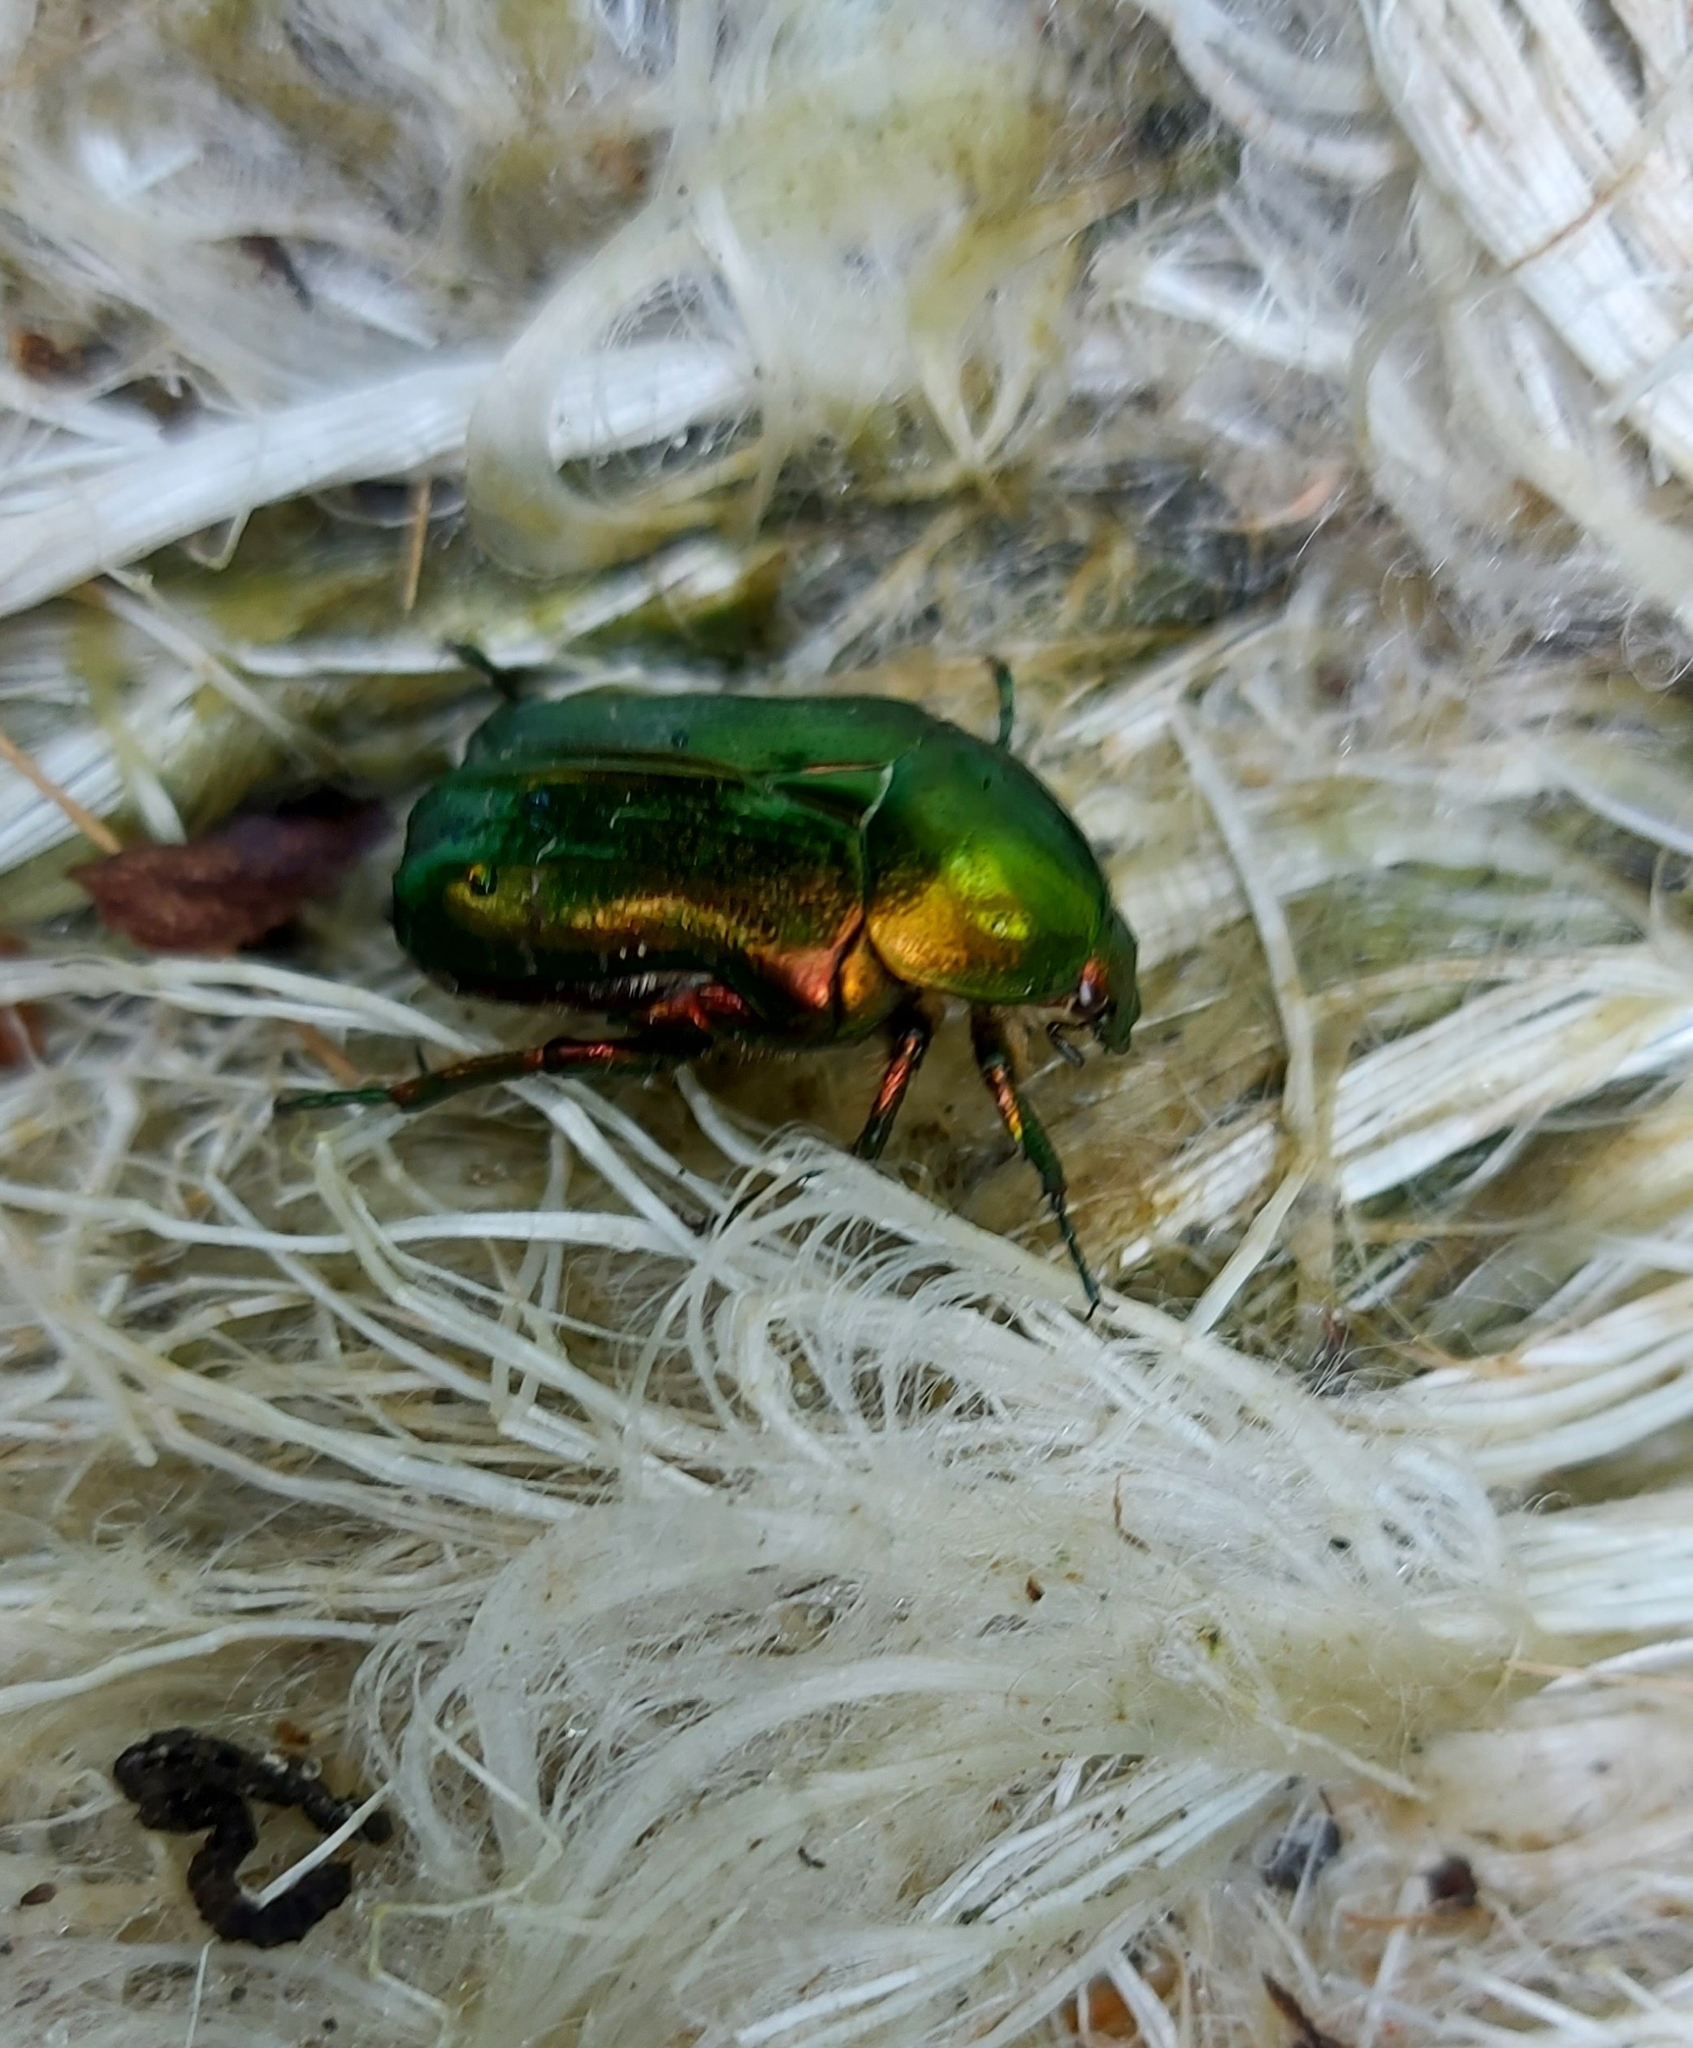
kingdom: Animalia
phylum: Arthropoda
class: Insecta
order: Coleoptera
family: Scarabaeidae
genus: Cetonia
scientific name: Cetonia aurata
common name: Rose chafer
